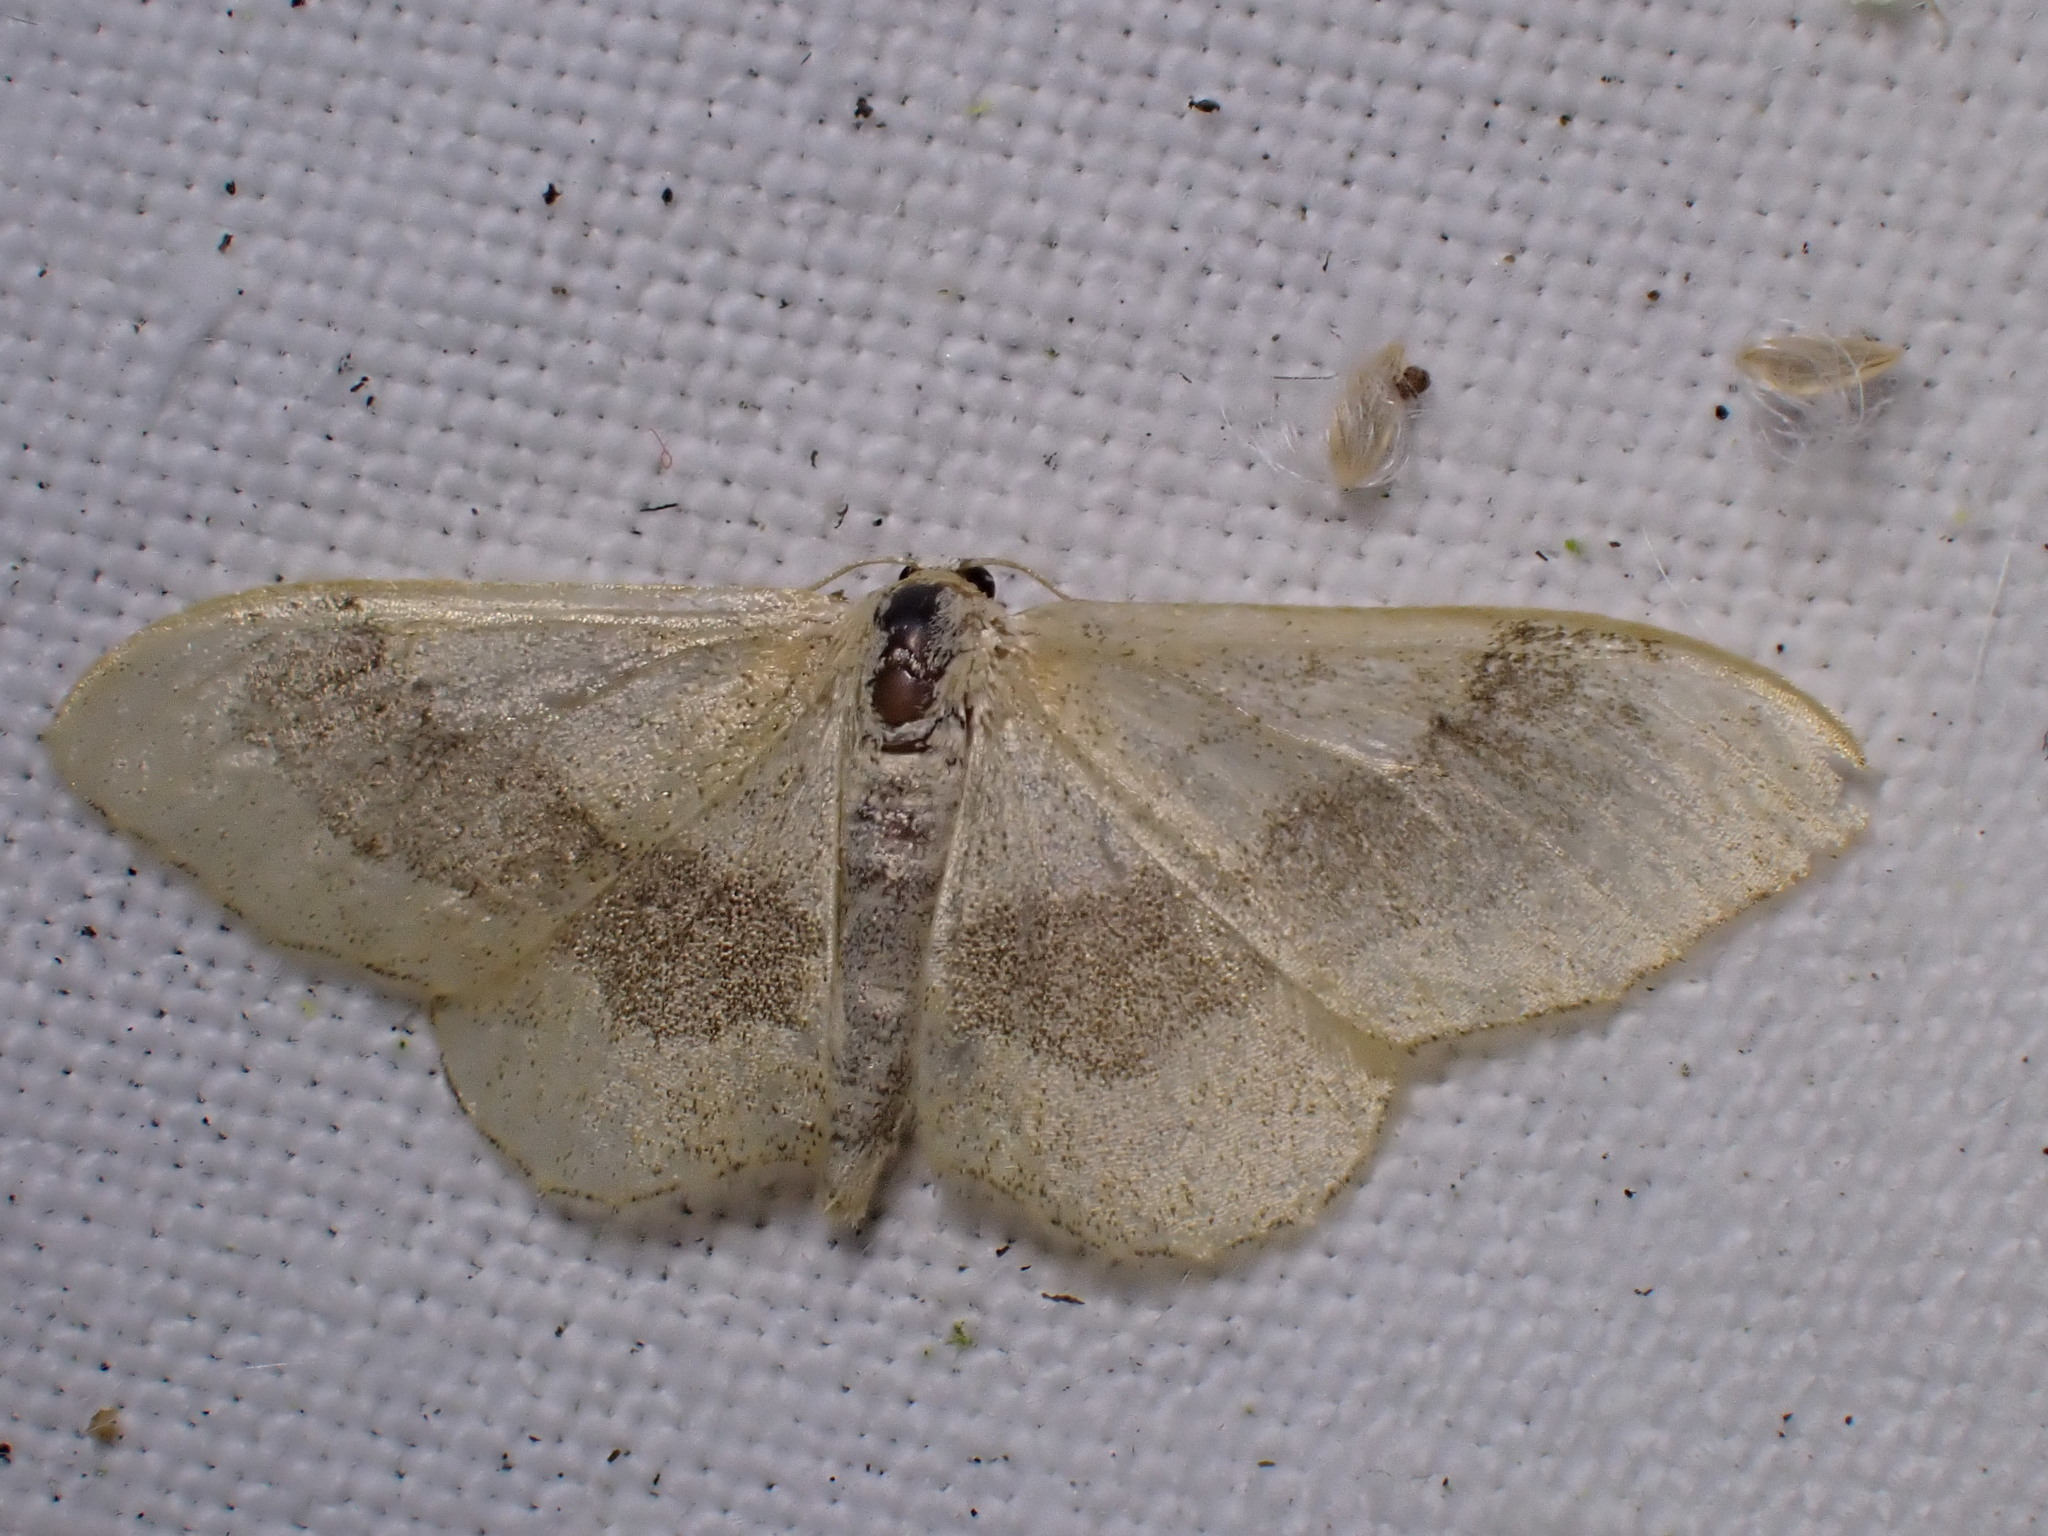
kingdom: Animalia
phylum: Arthropoda
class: Insecta
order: Lepidoptera
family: Geometridae
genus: Idaea
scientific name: Idaea aversata
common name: Riband wave
